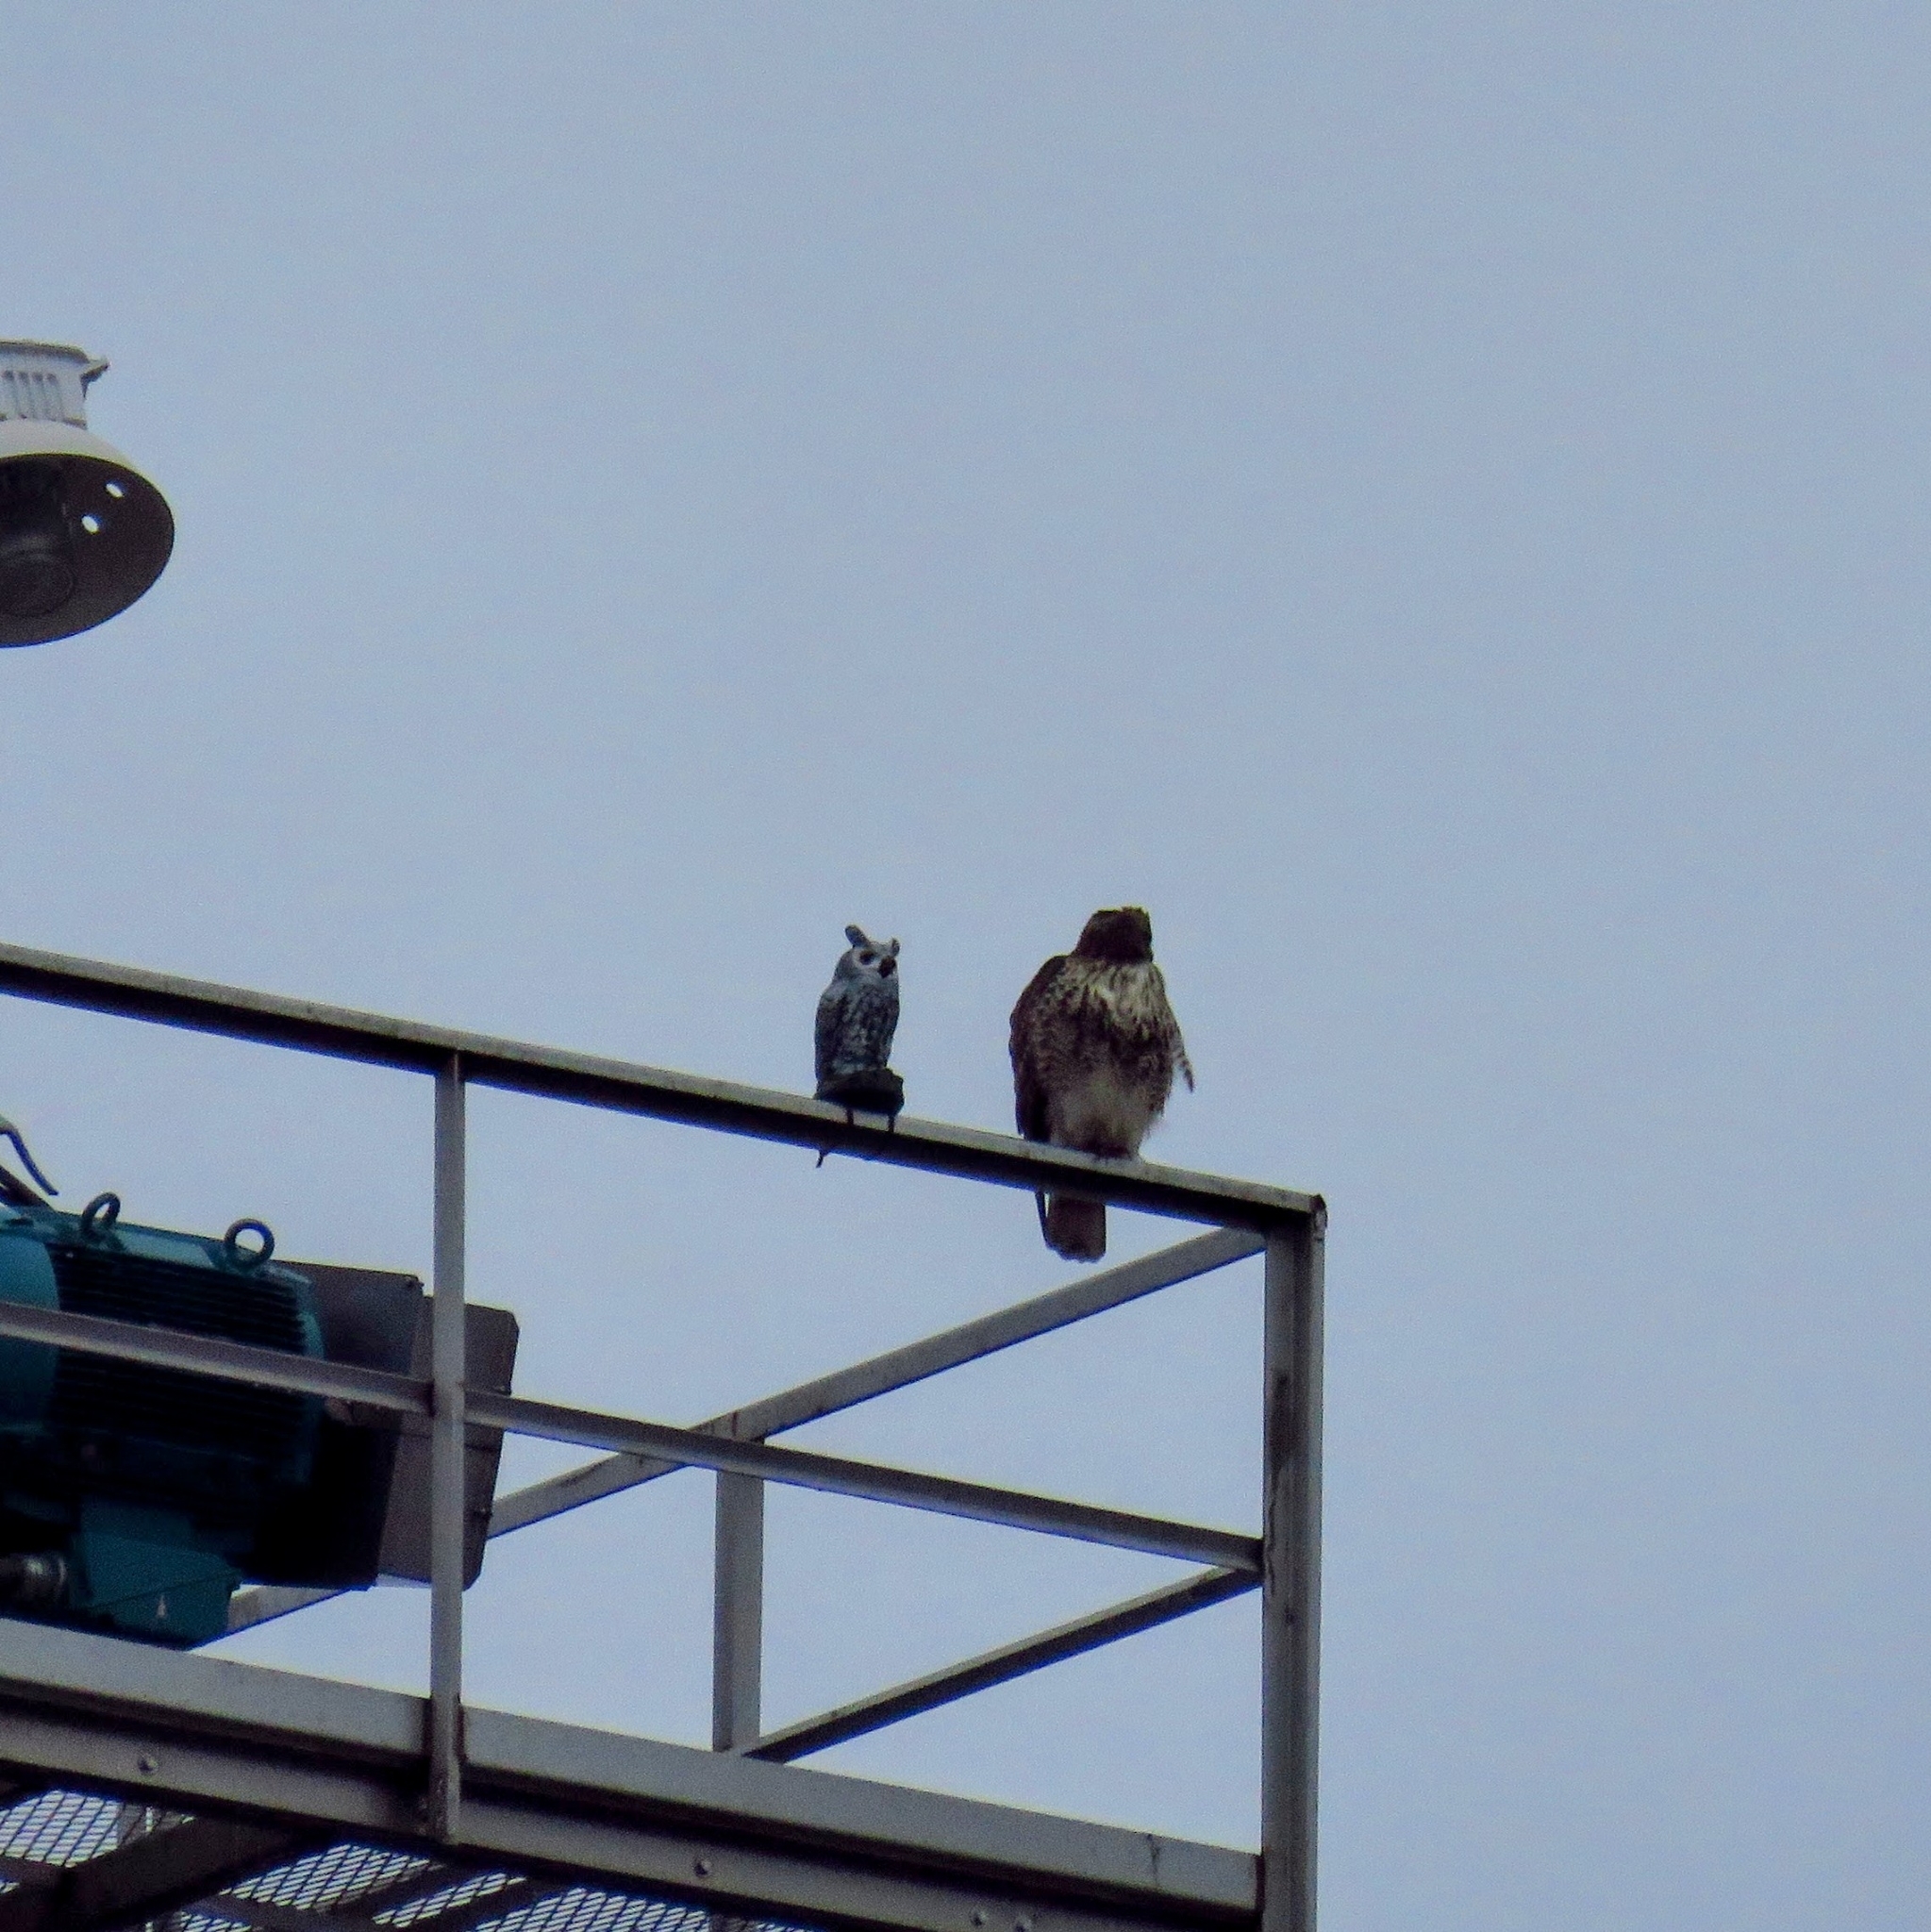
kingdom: Animalia
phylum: Chordata
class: Aves
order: Accipitriformes
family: Accipitridae
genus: Buteo
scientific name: Buteo jamaicensis
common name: Red-tailed hawk
